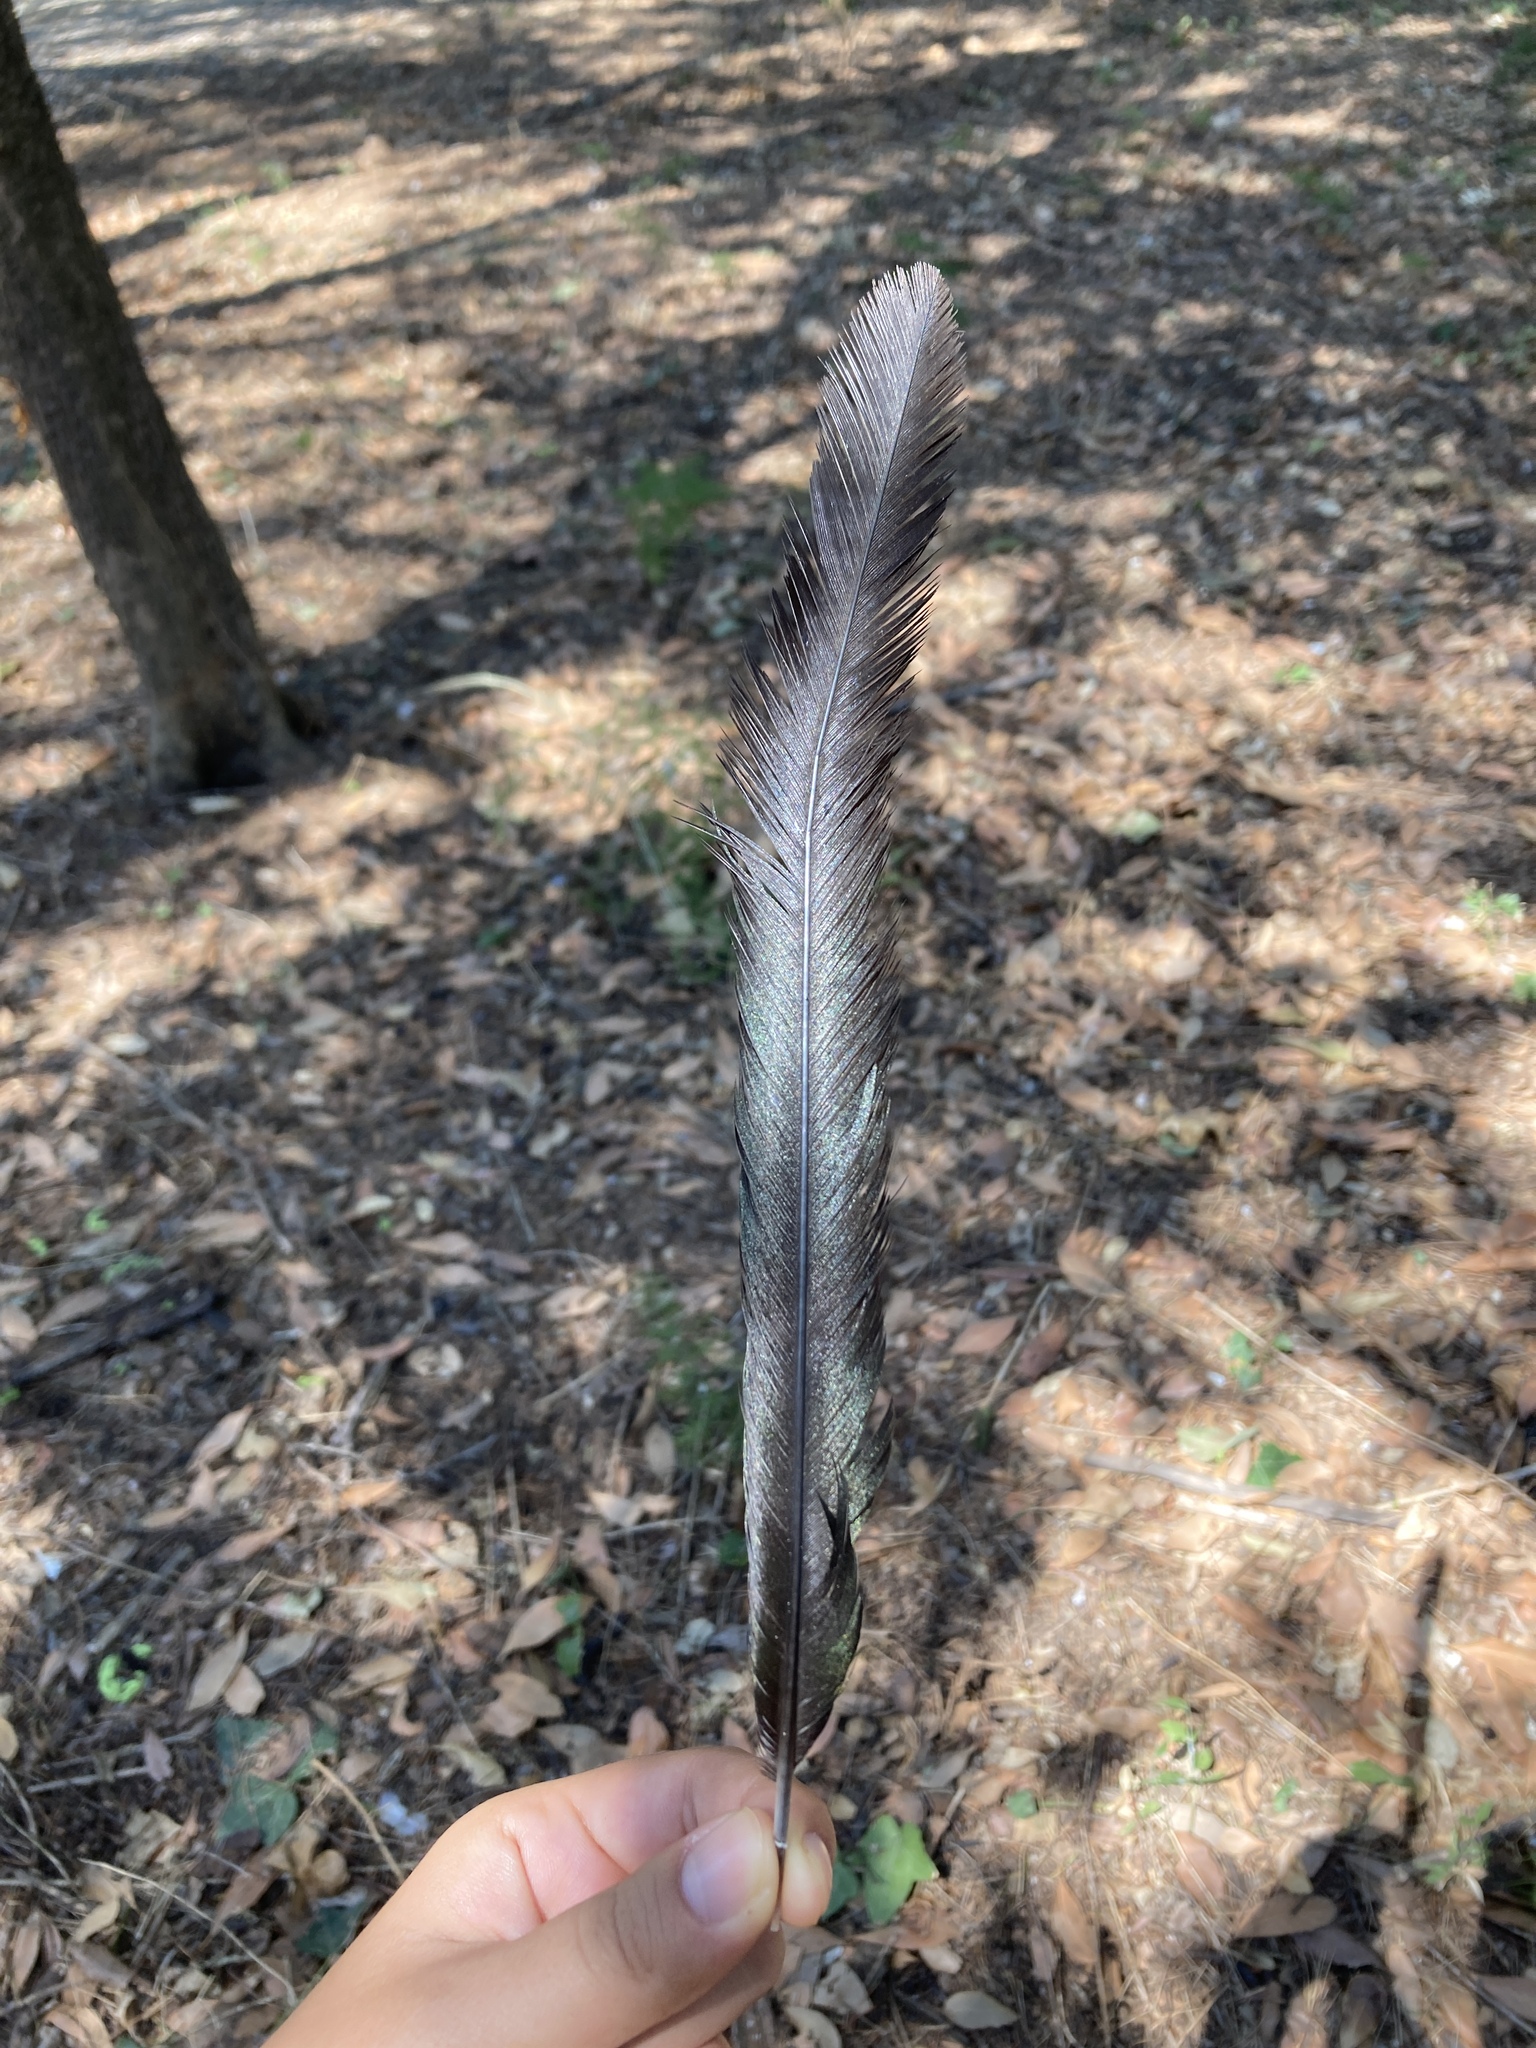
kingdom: Animalia
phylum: Chordata
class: Aves
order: Passeriformes
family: Corvidae
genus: Pica
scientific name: Pica pica
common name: Eurasian magpie
